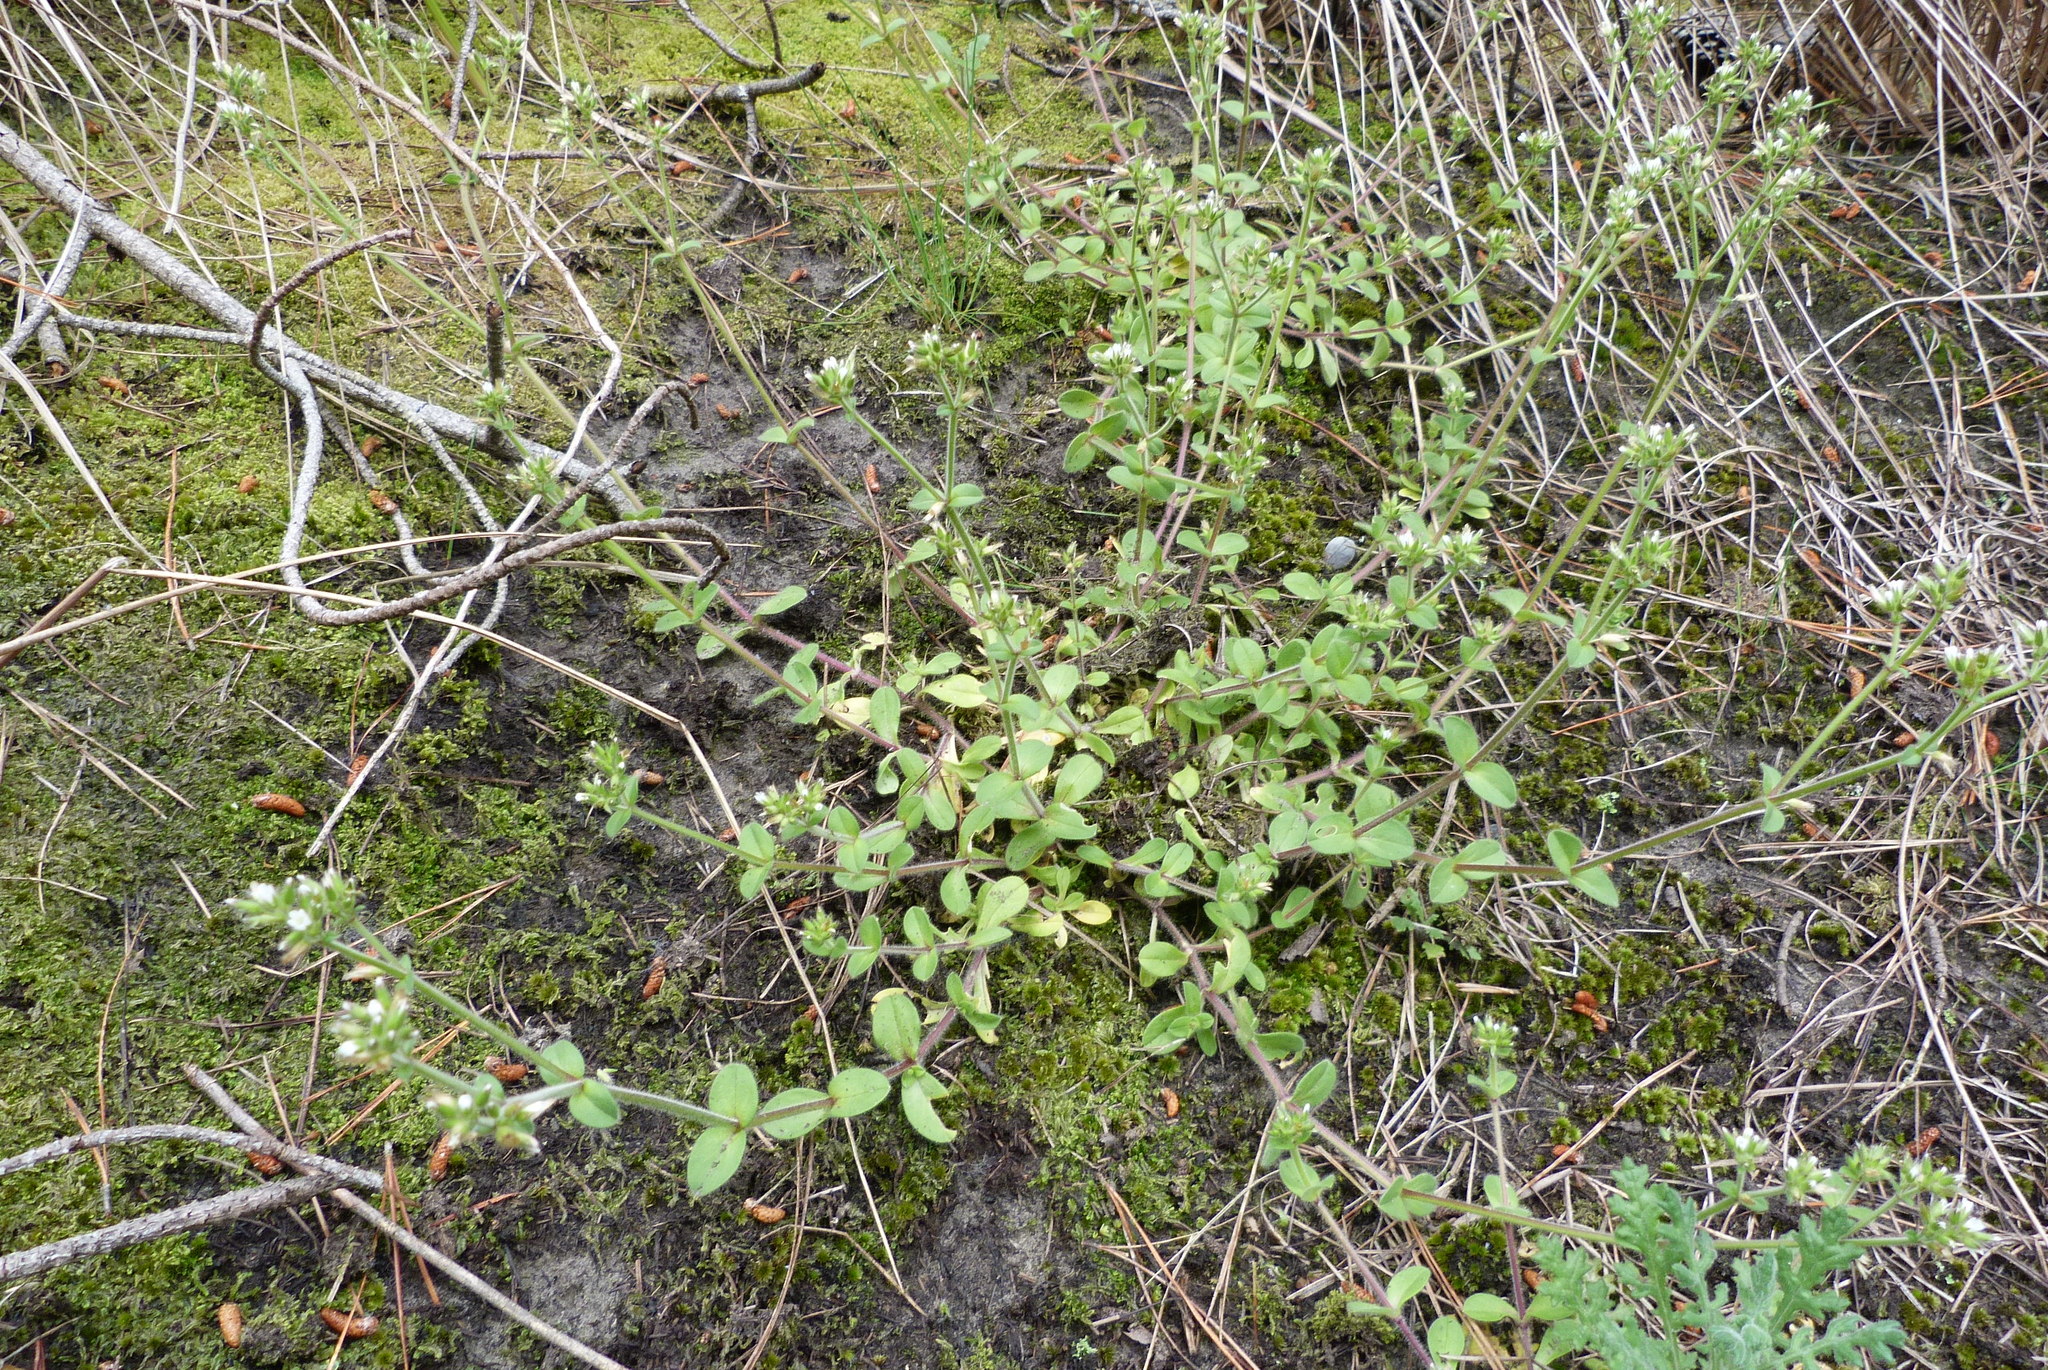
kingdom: Plantae
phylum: Tracheophyta
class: Magnoliopsida
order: Caryophyllales
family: Caryophyllaceae
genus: Cerastium
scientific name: Cerastium glomeratum
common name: Sticky chickweed
